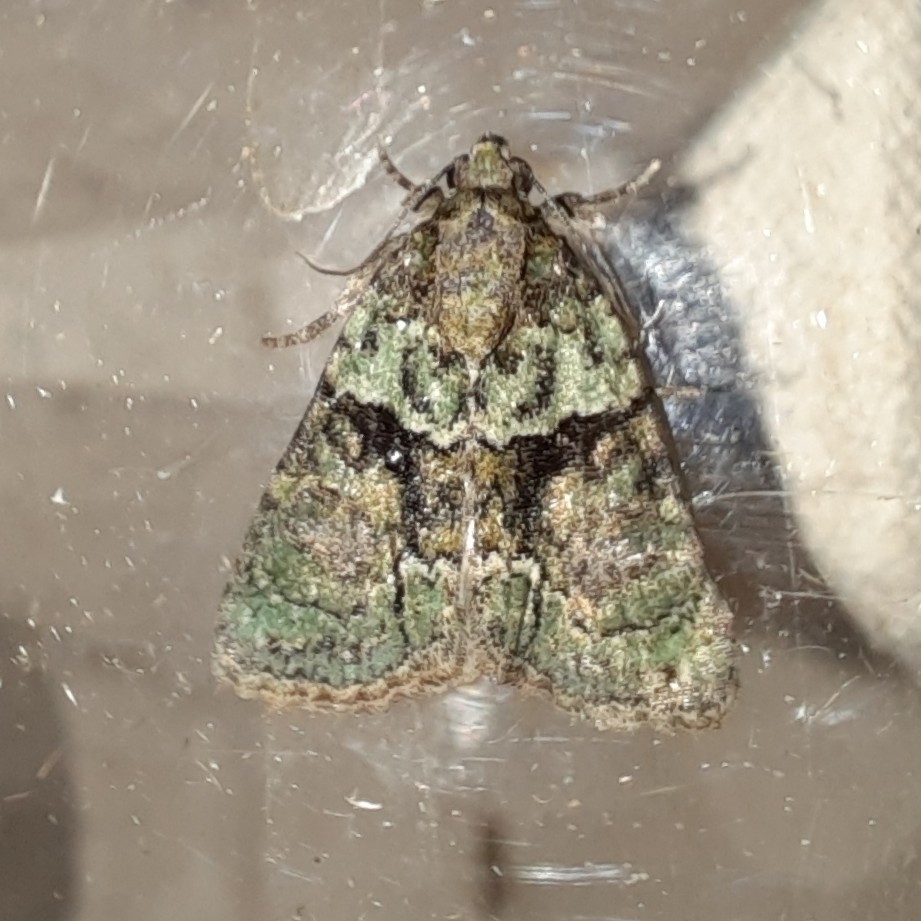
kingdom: Animalia
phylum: Arthropoda
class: Insecta
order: Lepidoptera
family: Noctuidae
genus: Cryphia
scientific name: Cryphia algae
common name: Tree-lichen beauty
